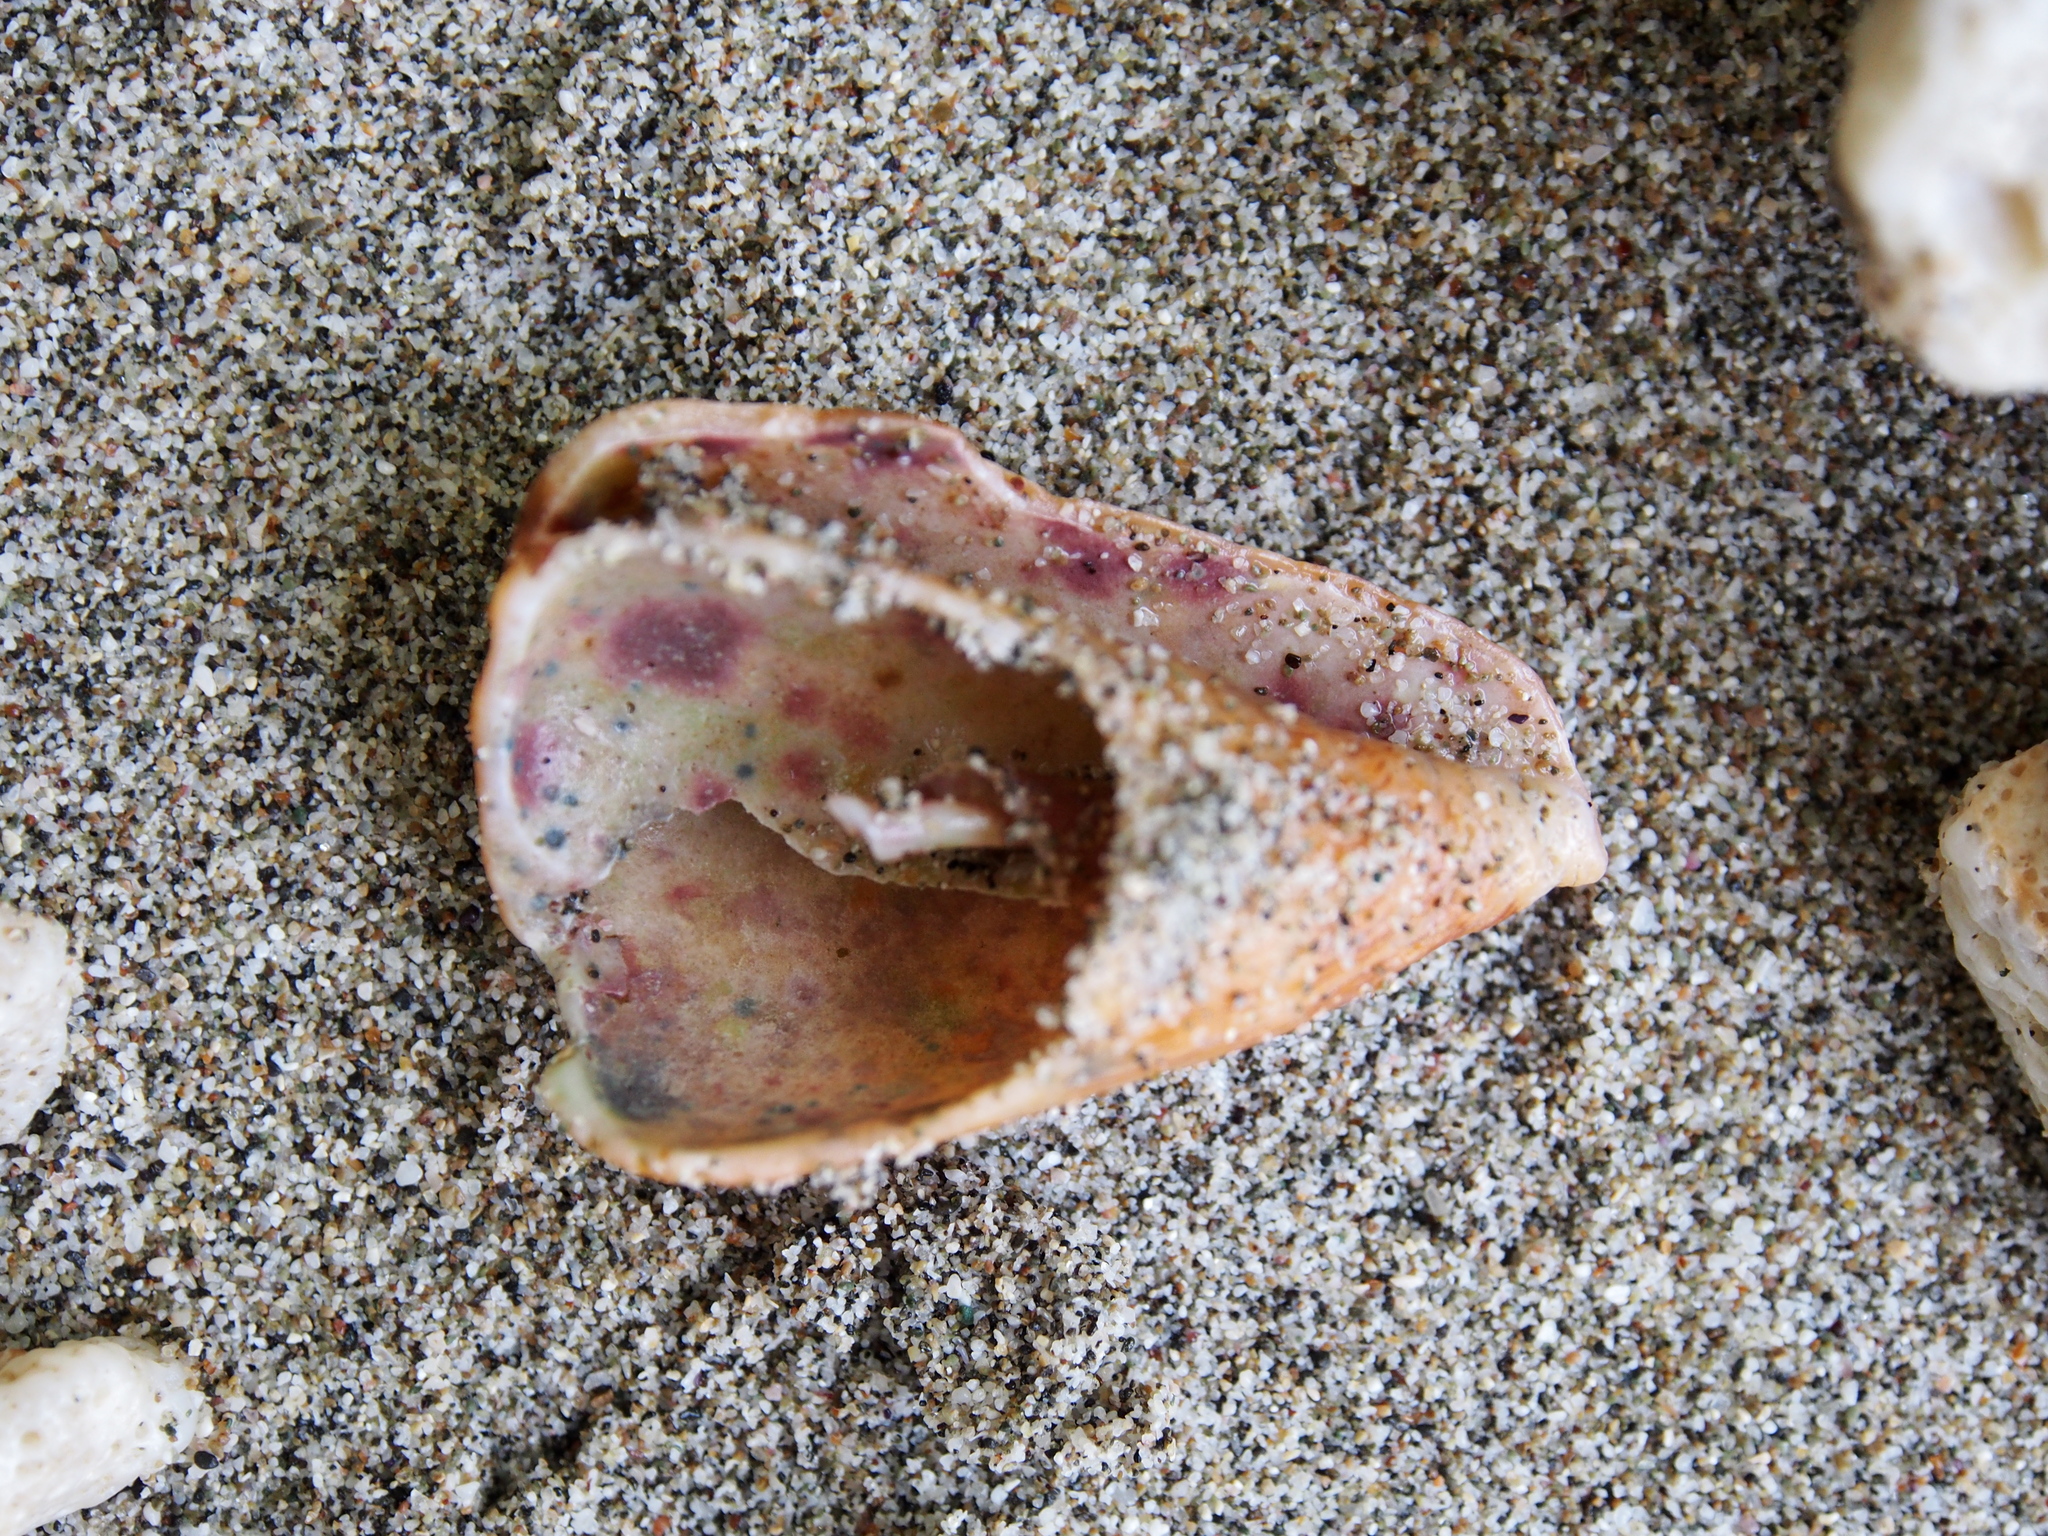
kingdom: Animalia
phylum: Mollusca
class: Gastropoda
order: Neogastropoda
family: Conidae
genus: Conus
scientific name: Conus princeps
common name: Prince cone
